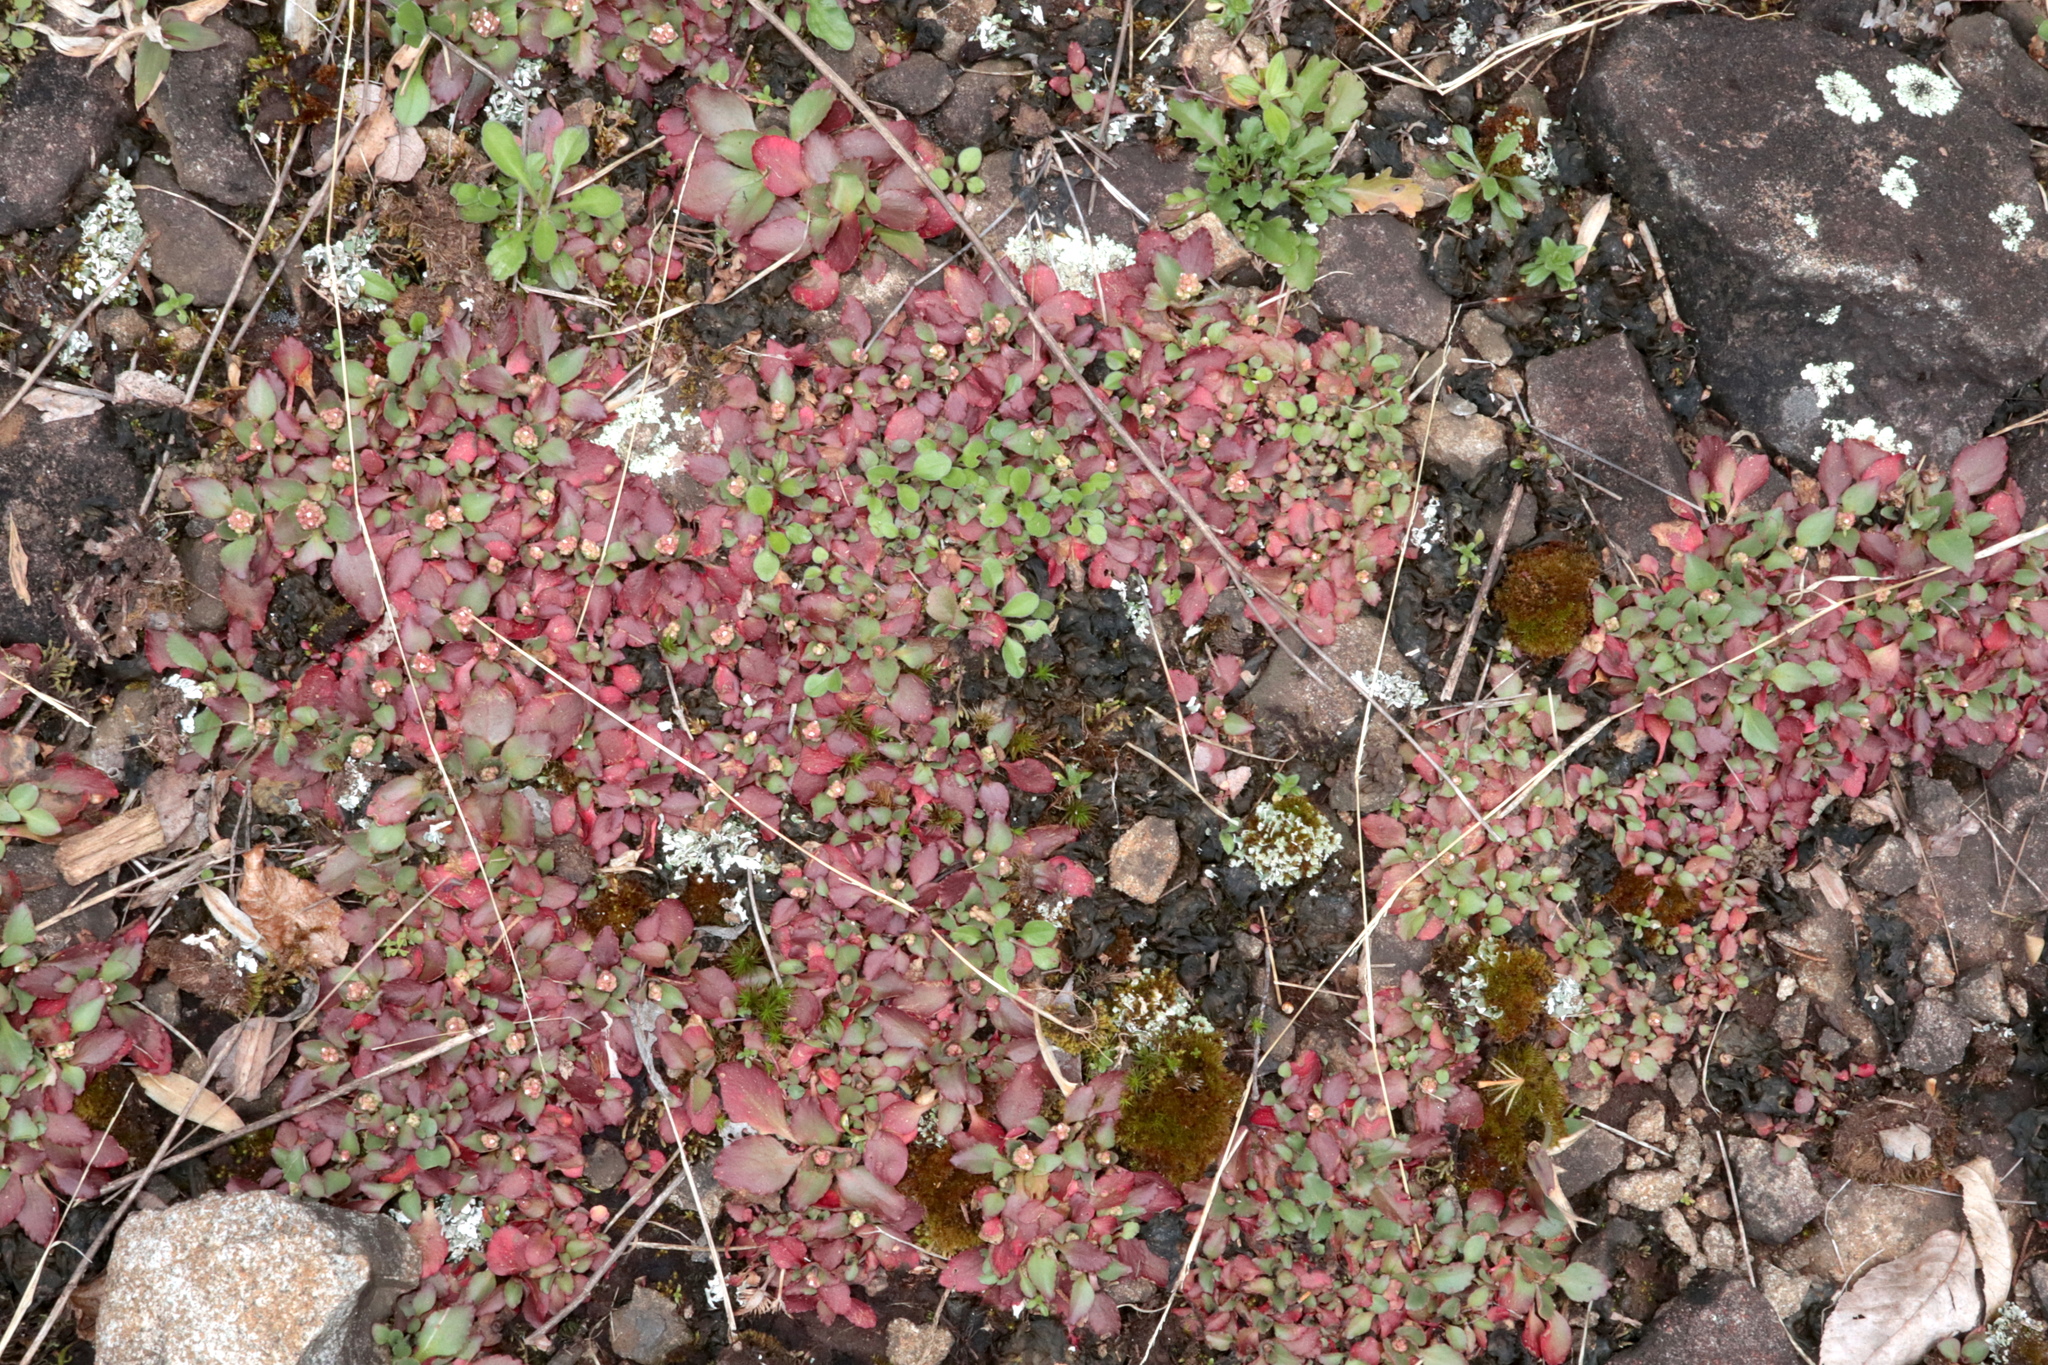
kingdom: Plantae
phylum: Tracheophyta
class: Magnoliopsida
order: Saxifragales
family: Saxifragaceae
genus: Micranthes
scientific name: Micranthes virginiensis
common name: Early saxifrage
